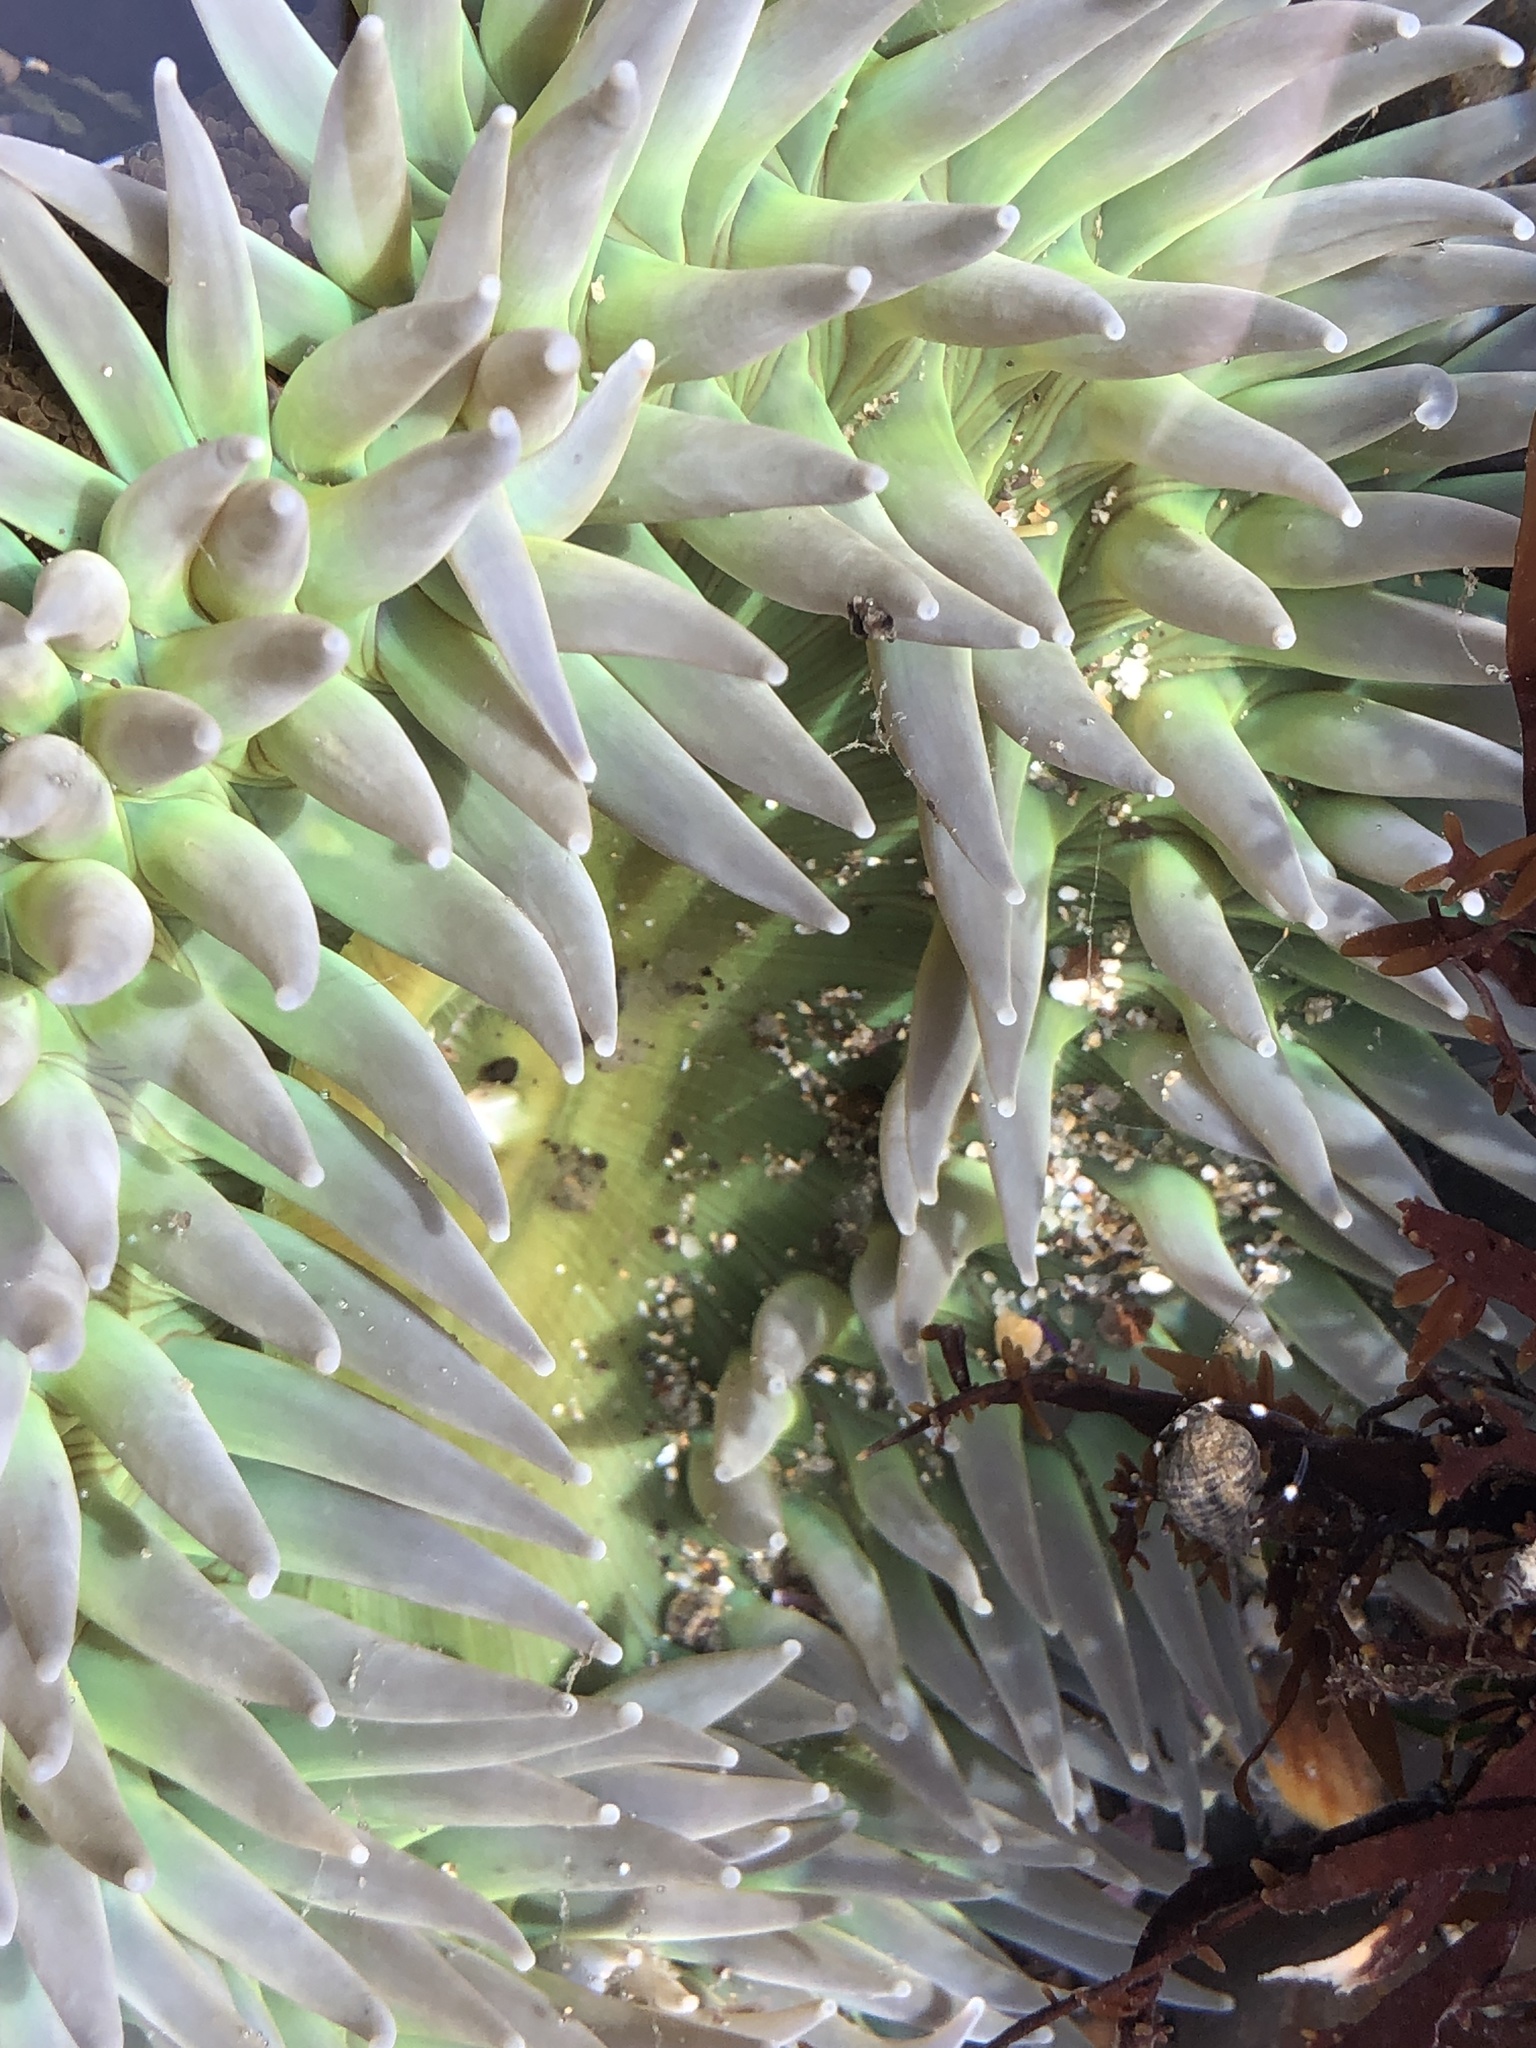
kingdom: Animalia
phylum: Cnidaria
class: Anthozoa
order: Actiniaria
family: Actiniidae
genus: Anthopleura
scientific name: Anthopleura xanthogrammica
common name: Giant green anemone
